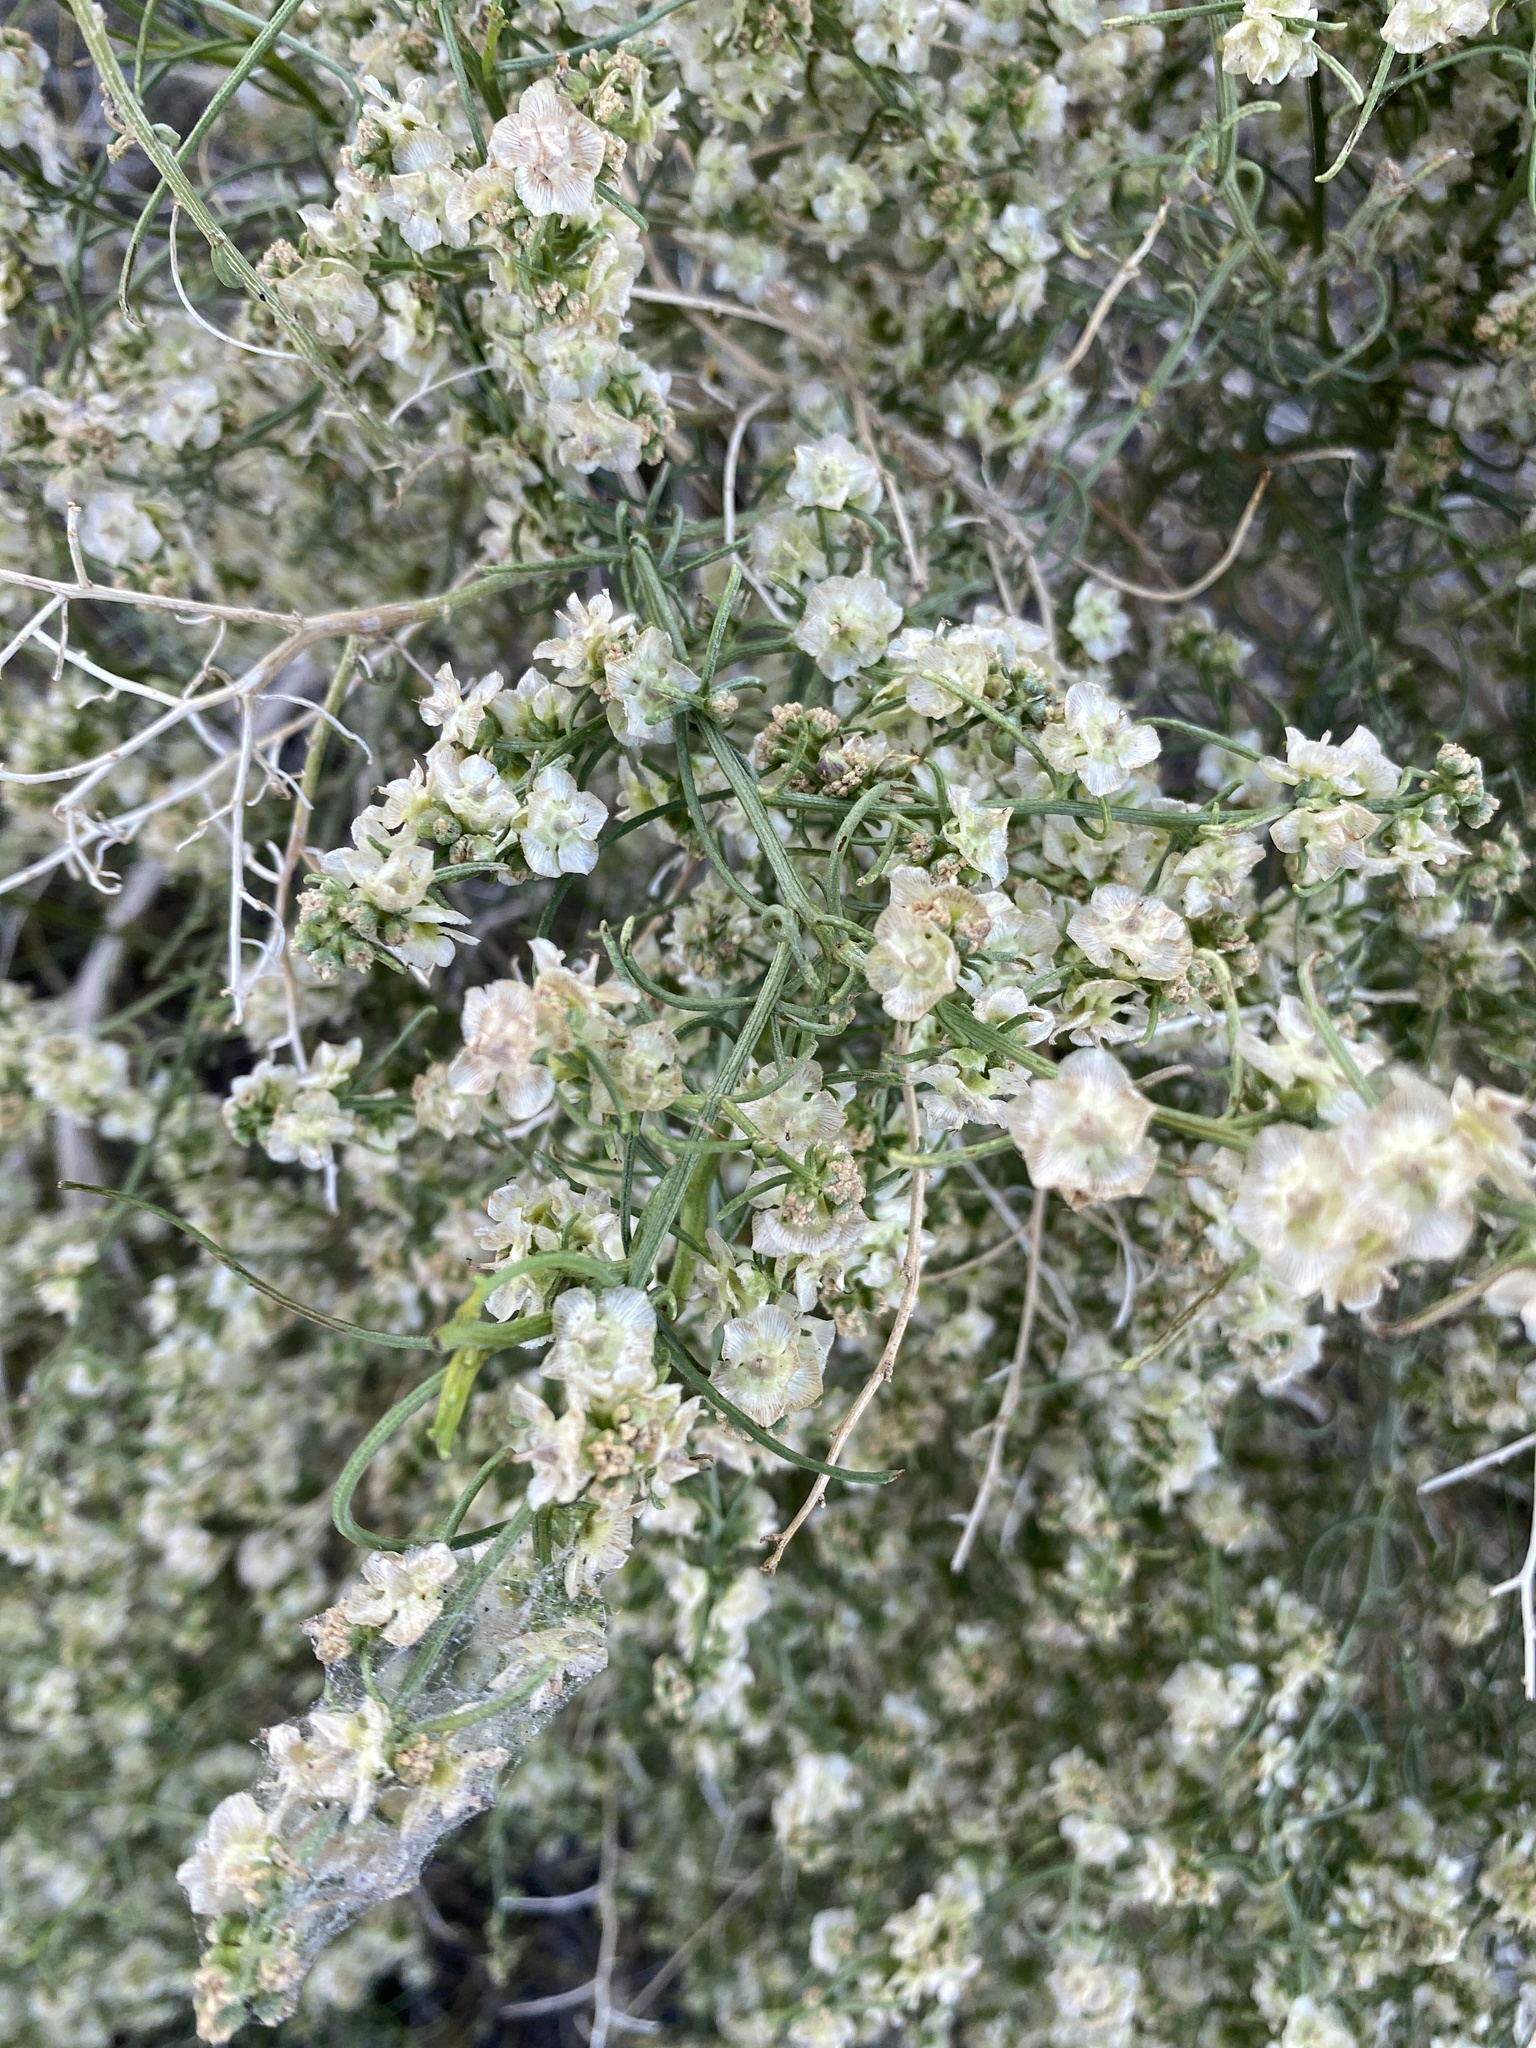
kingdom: Plantae
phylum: Tracheophyta
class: Magnoliopsida
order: Asterales
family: Asteraceae
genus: Ambrosia
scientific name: Ambrosia salsola
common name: Burrobrush
